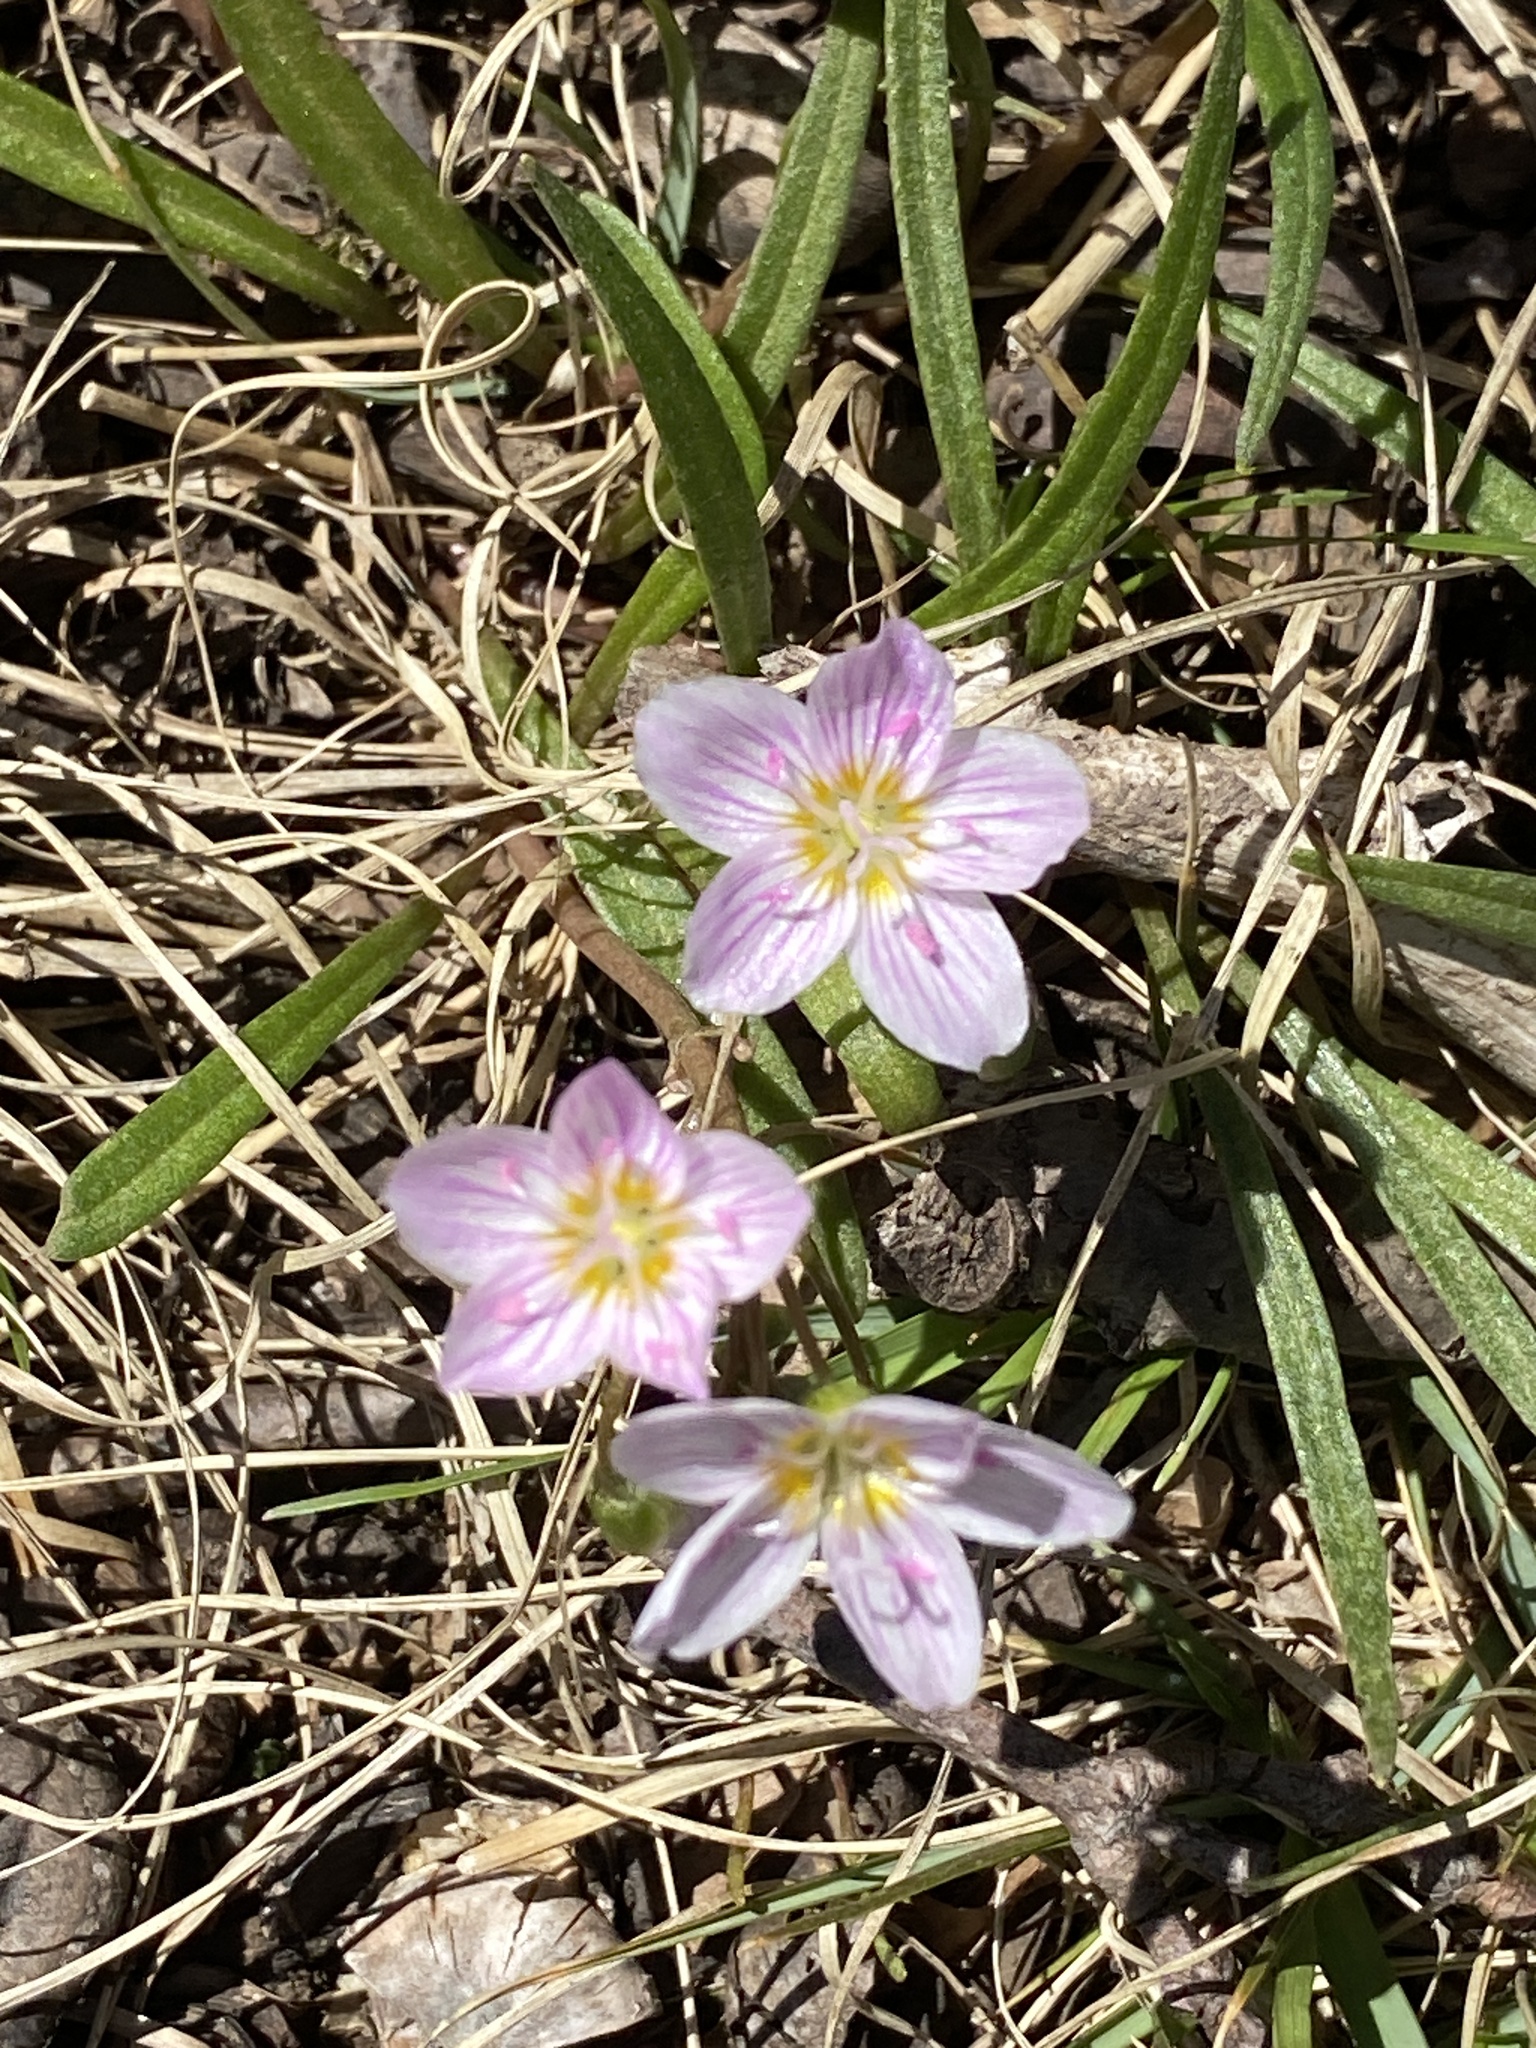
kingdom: Plantae
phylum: Tracheophyta
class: Magnoliopsida
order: Caryophyllales
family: Montiaceae
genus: Claytonia
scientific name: Claytonia virginica
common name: Virginia springbeauty
